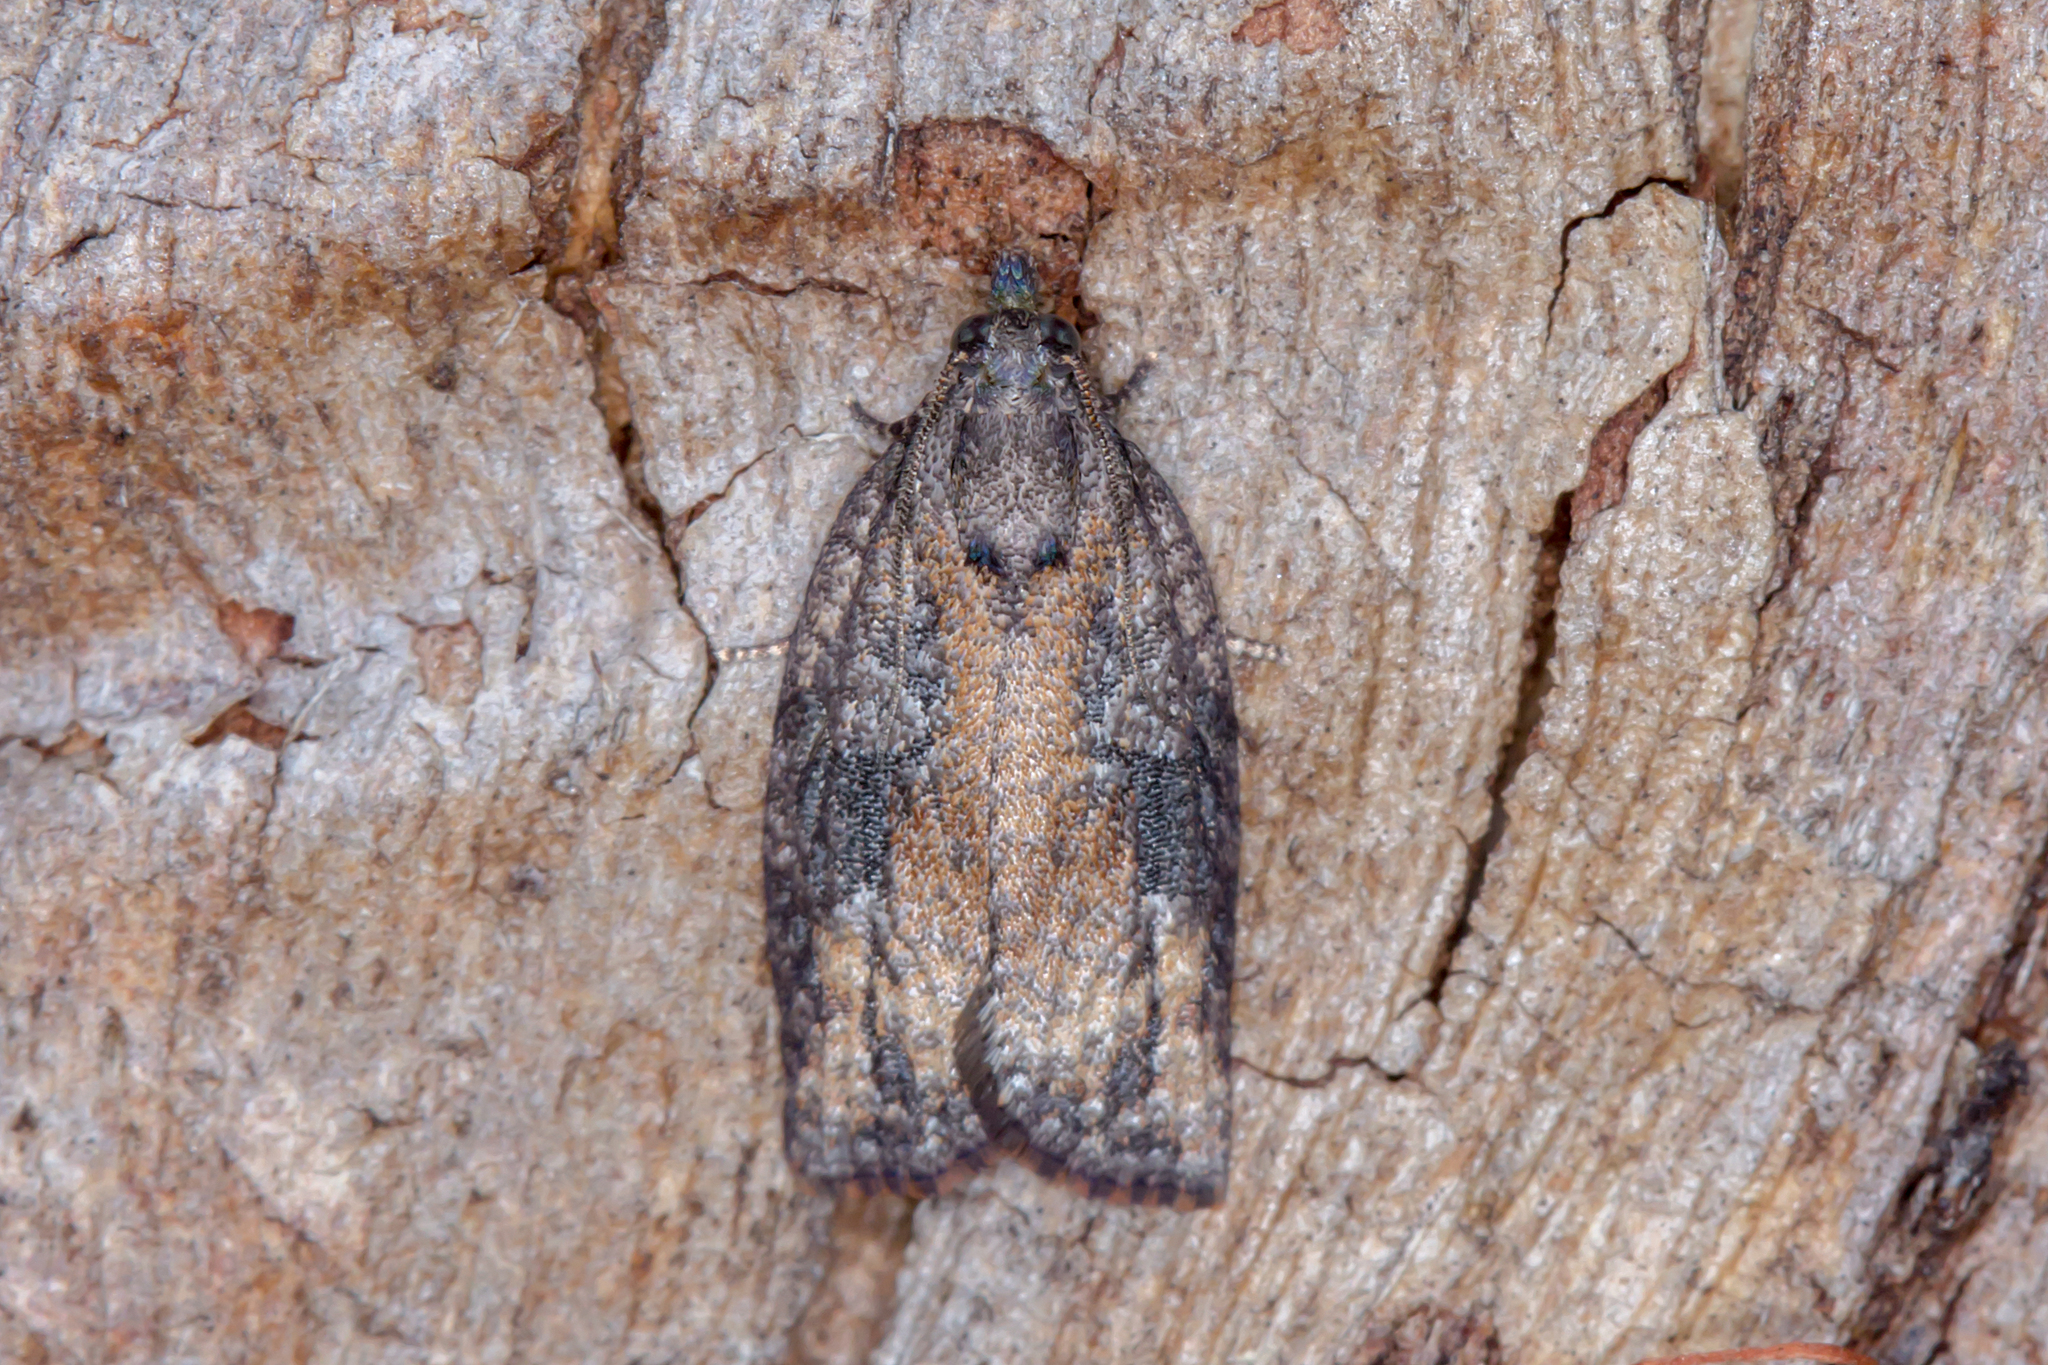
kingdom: Animalia
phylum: Arthropoda
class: Insecta
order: Lepidoptera
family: Tortricidae
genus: Acropolitis
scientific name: Acropolitis ptychosema
